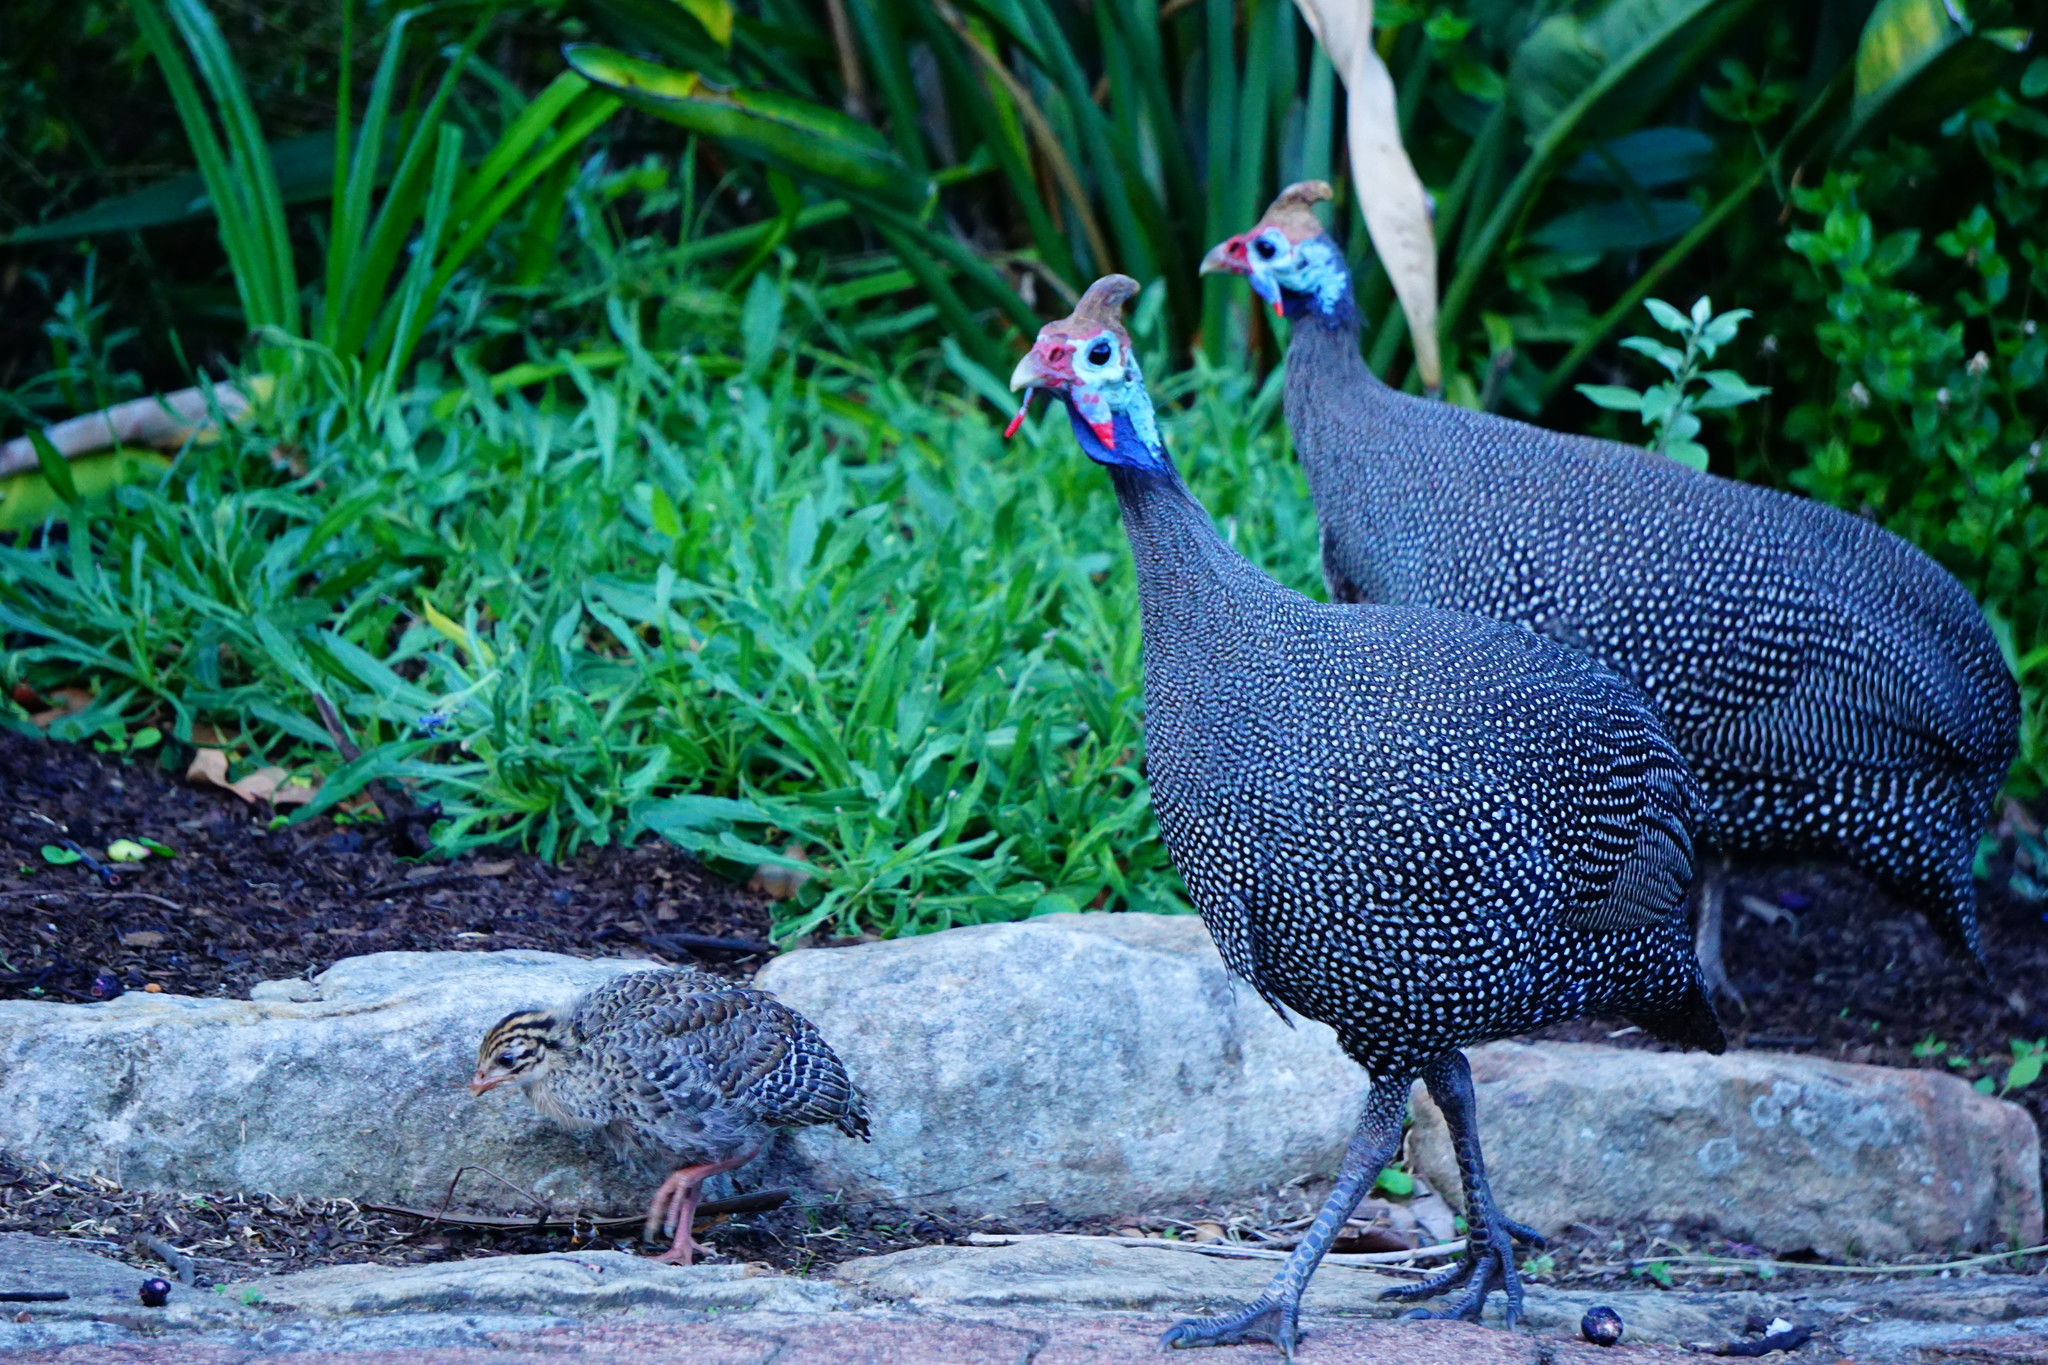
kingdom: Animalia
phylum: Chordata
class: Aves
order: Galliformes
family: Numididae
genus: Numida
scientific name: Numida meleagris
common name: Helmeted guineafowl
